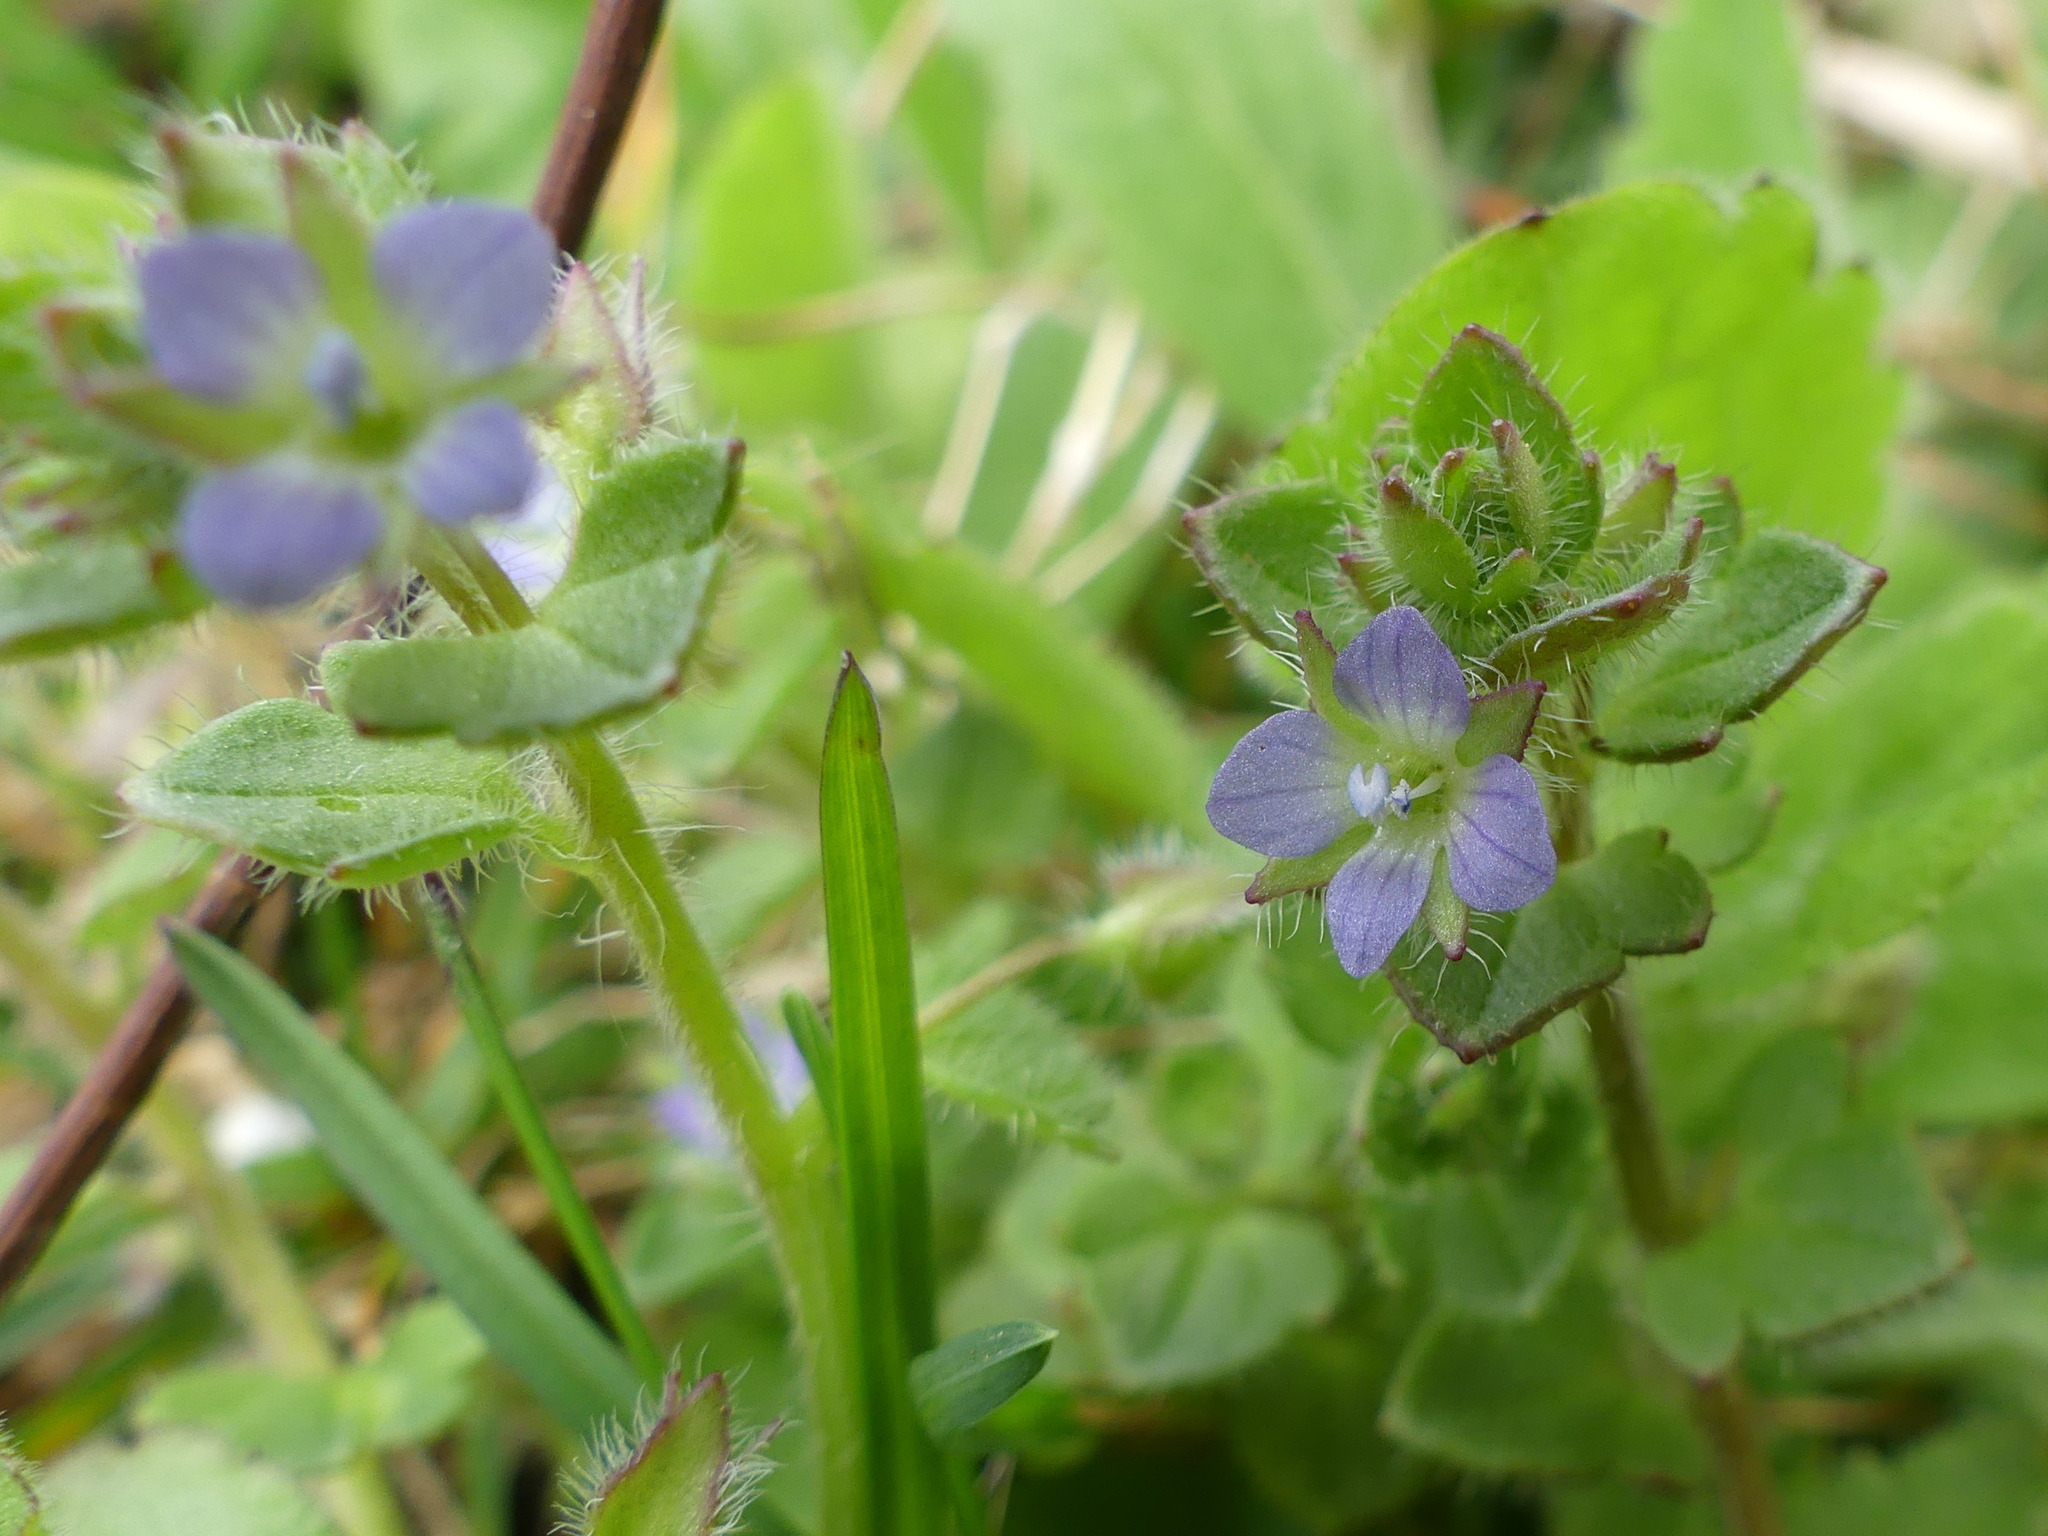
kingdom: Plantae
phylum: Tracheophyta
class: Magnoliopsida
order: Lamiales
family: Plantaginaceae
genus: Veronica
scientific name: Veronica hederifolia
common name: Ivy-leaved speedwell
